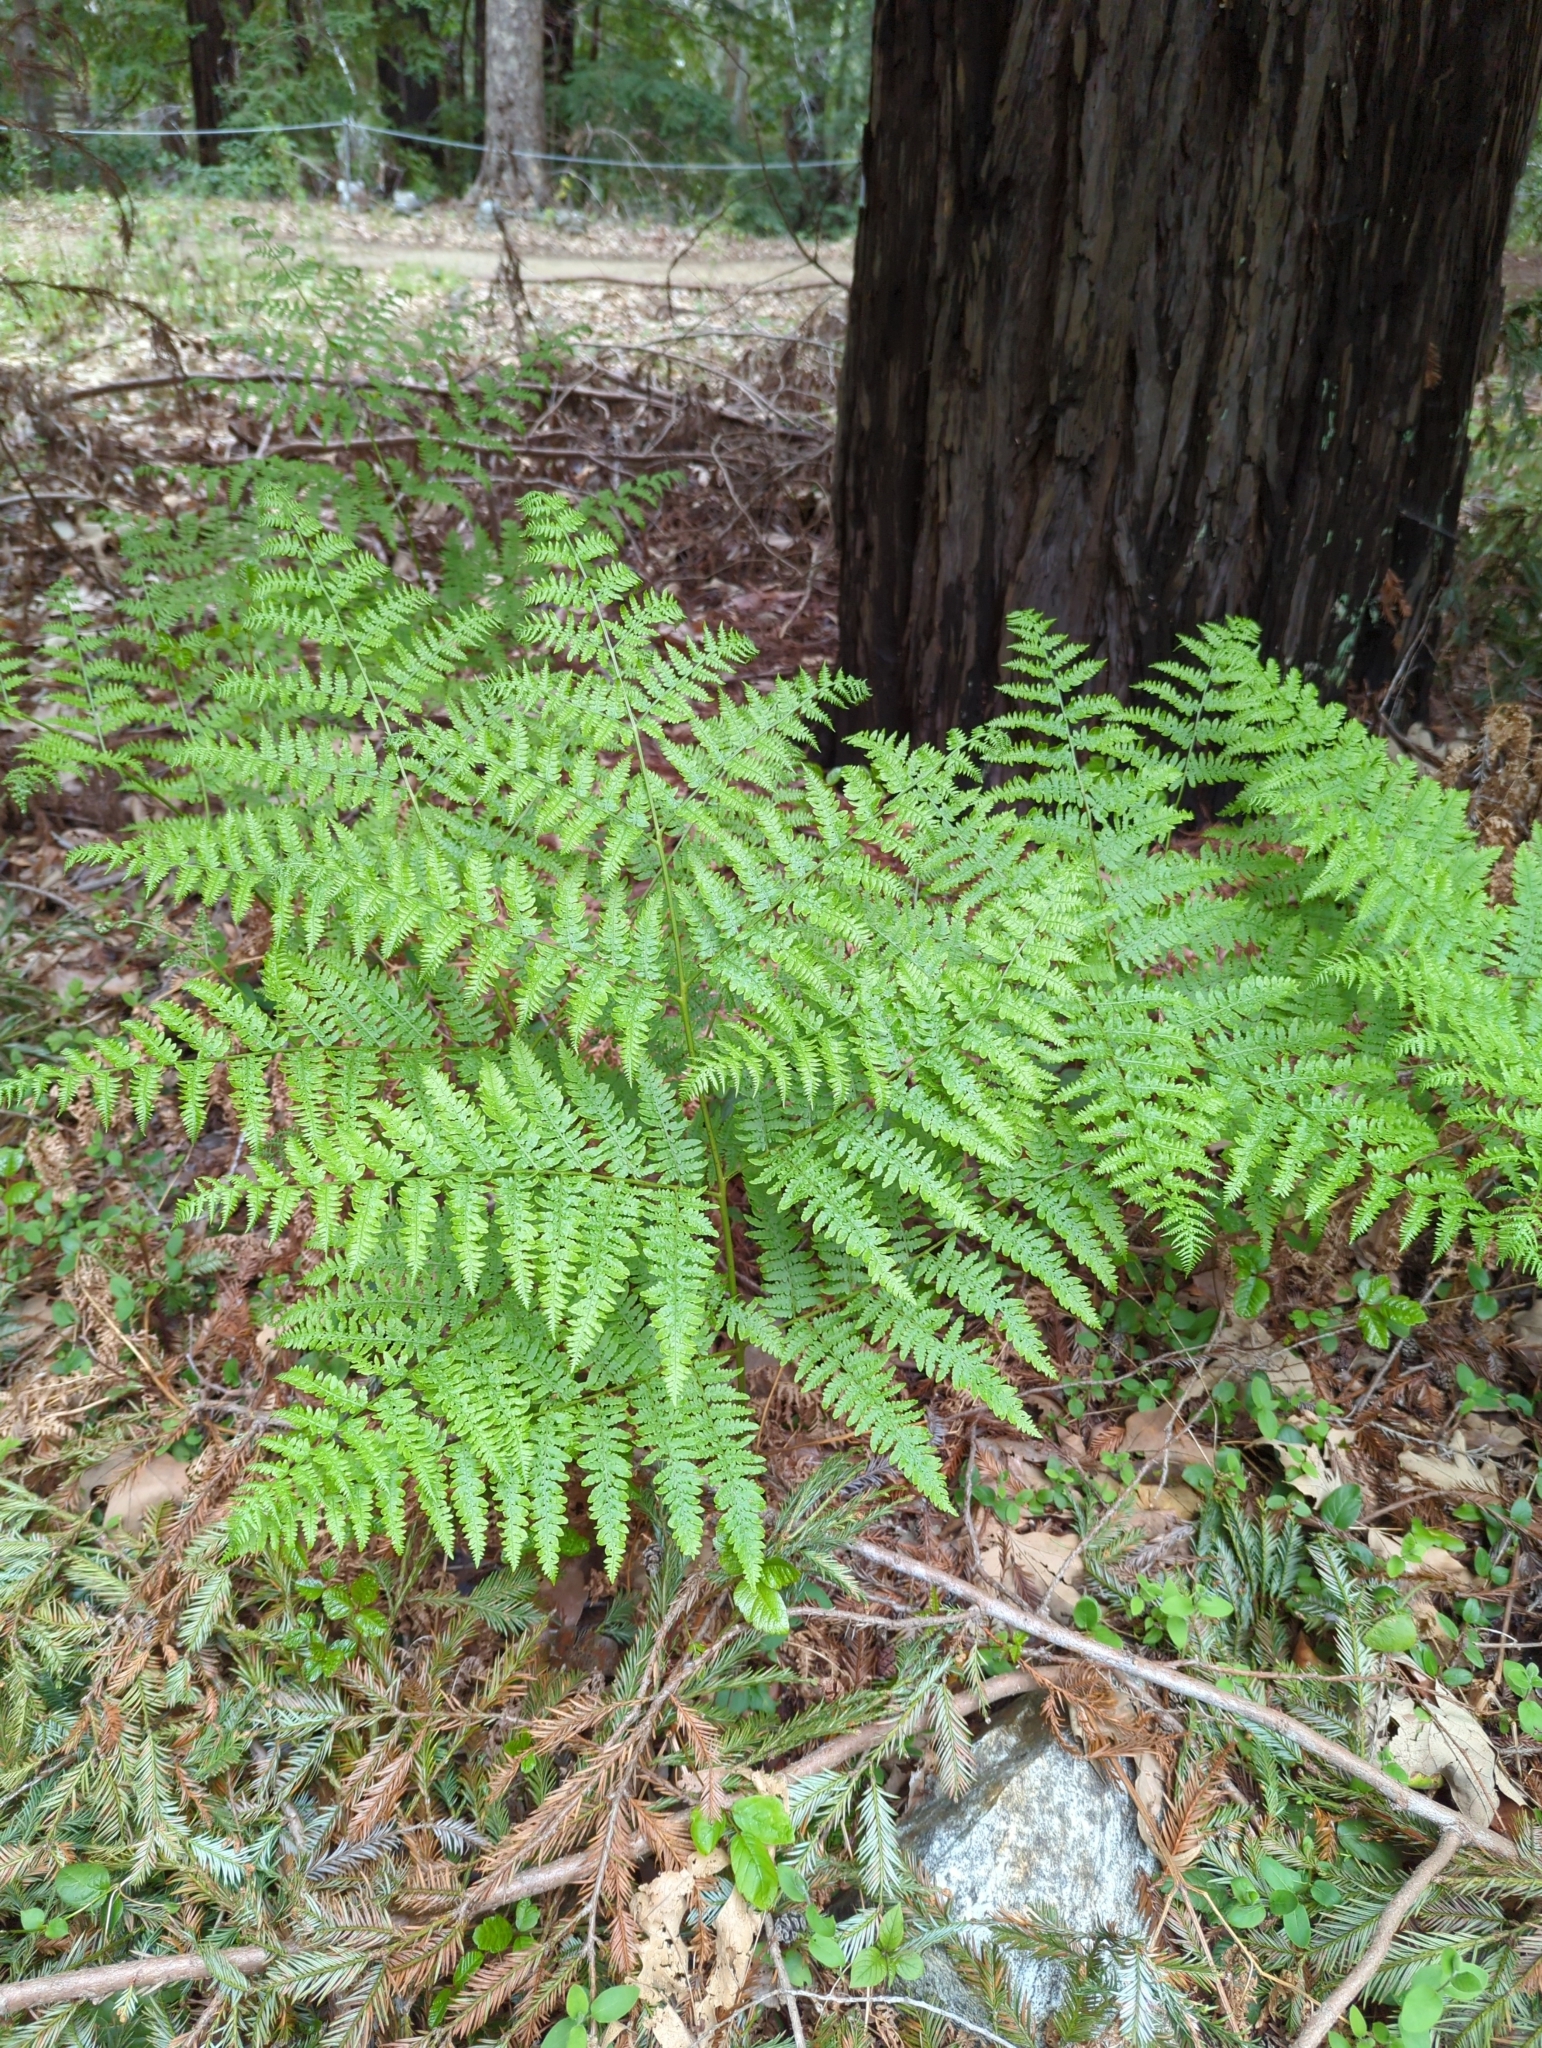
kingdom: Plantae
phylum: Tracheophyta
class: Polypodiopsida
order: Polypodiales
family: Dennstaedtiaceae
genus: Pteridium
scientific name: Pteridium aquilinum
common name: Bracken
